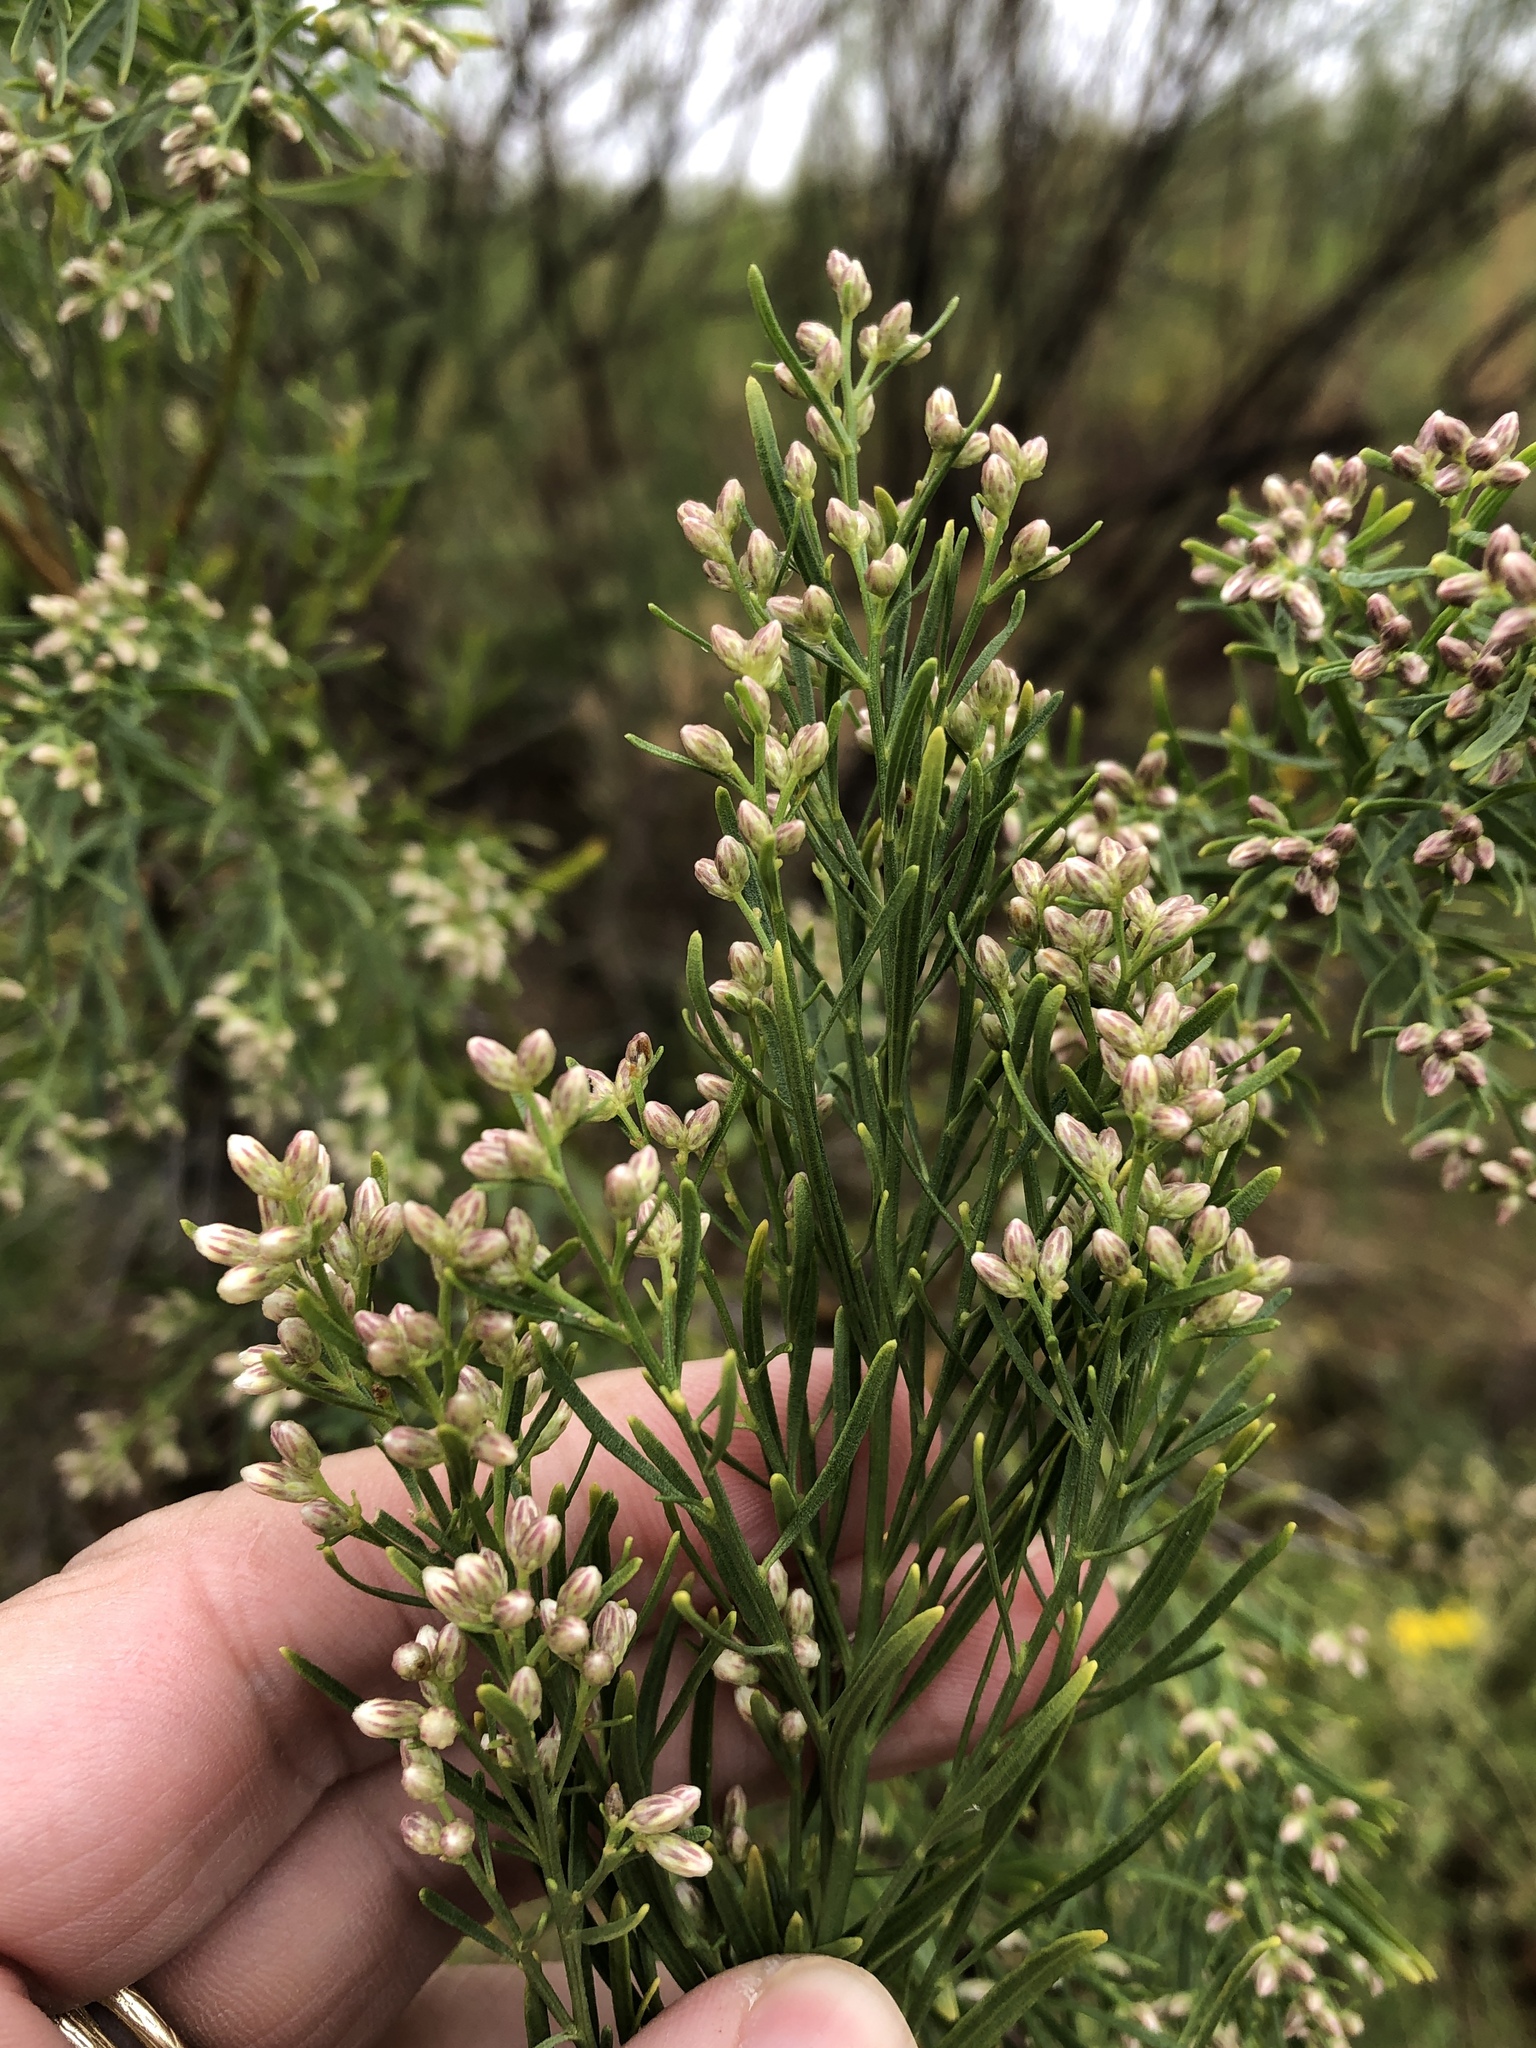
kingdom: Plantae
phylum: Tracheophyta
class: Magnoliopsida
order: Asterales
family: Asteraceae
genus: Baccharis
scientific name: Baccharis neglecta
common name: Roosevelt-weed
